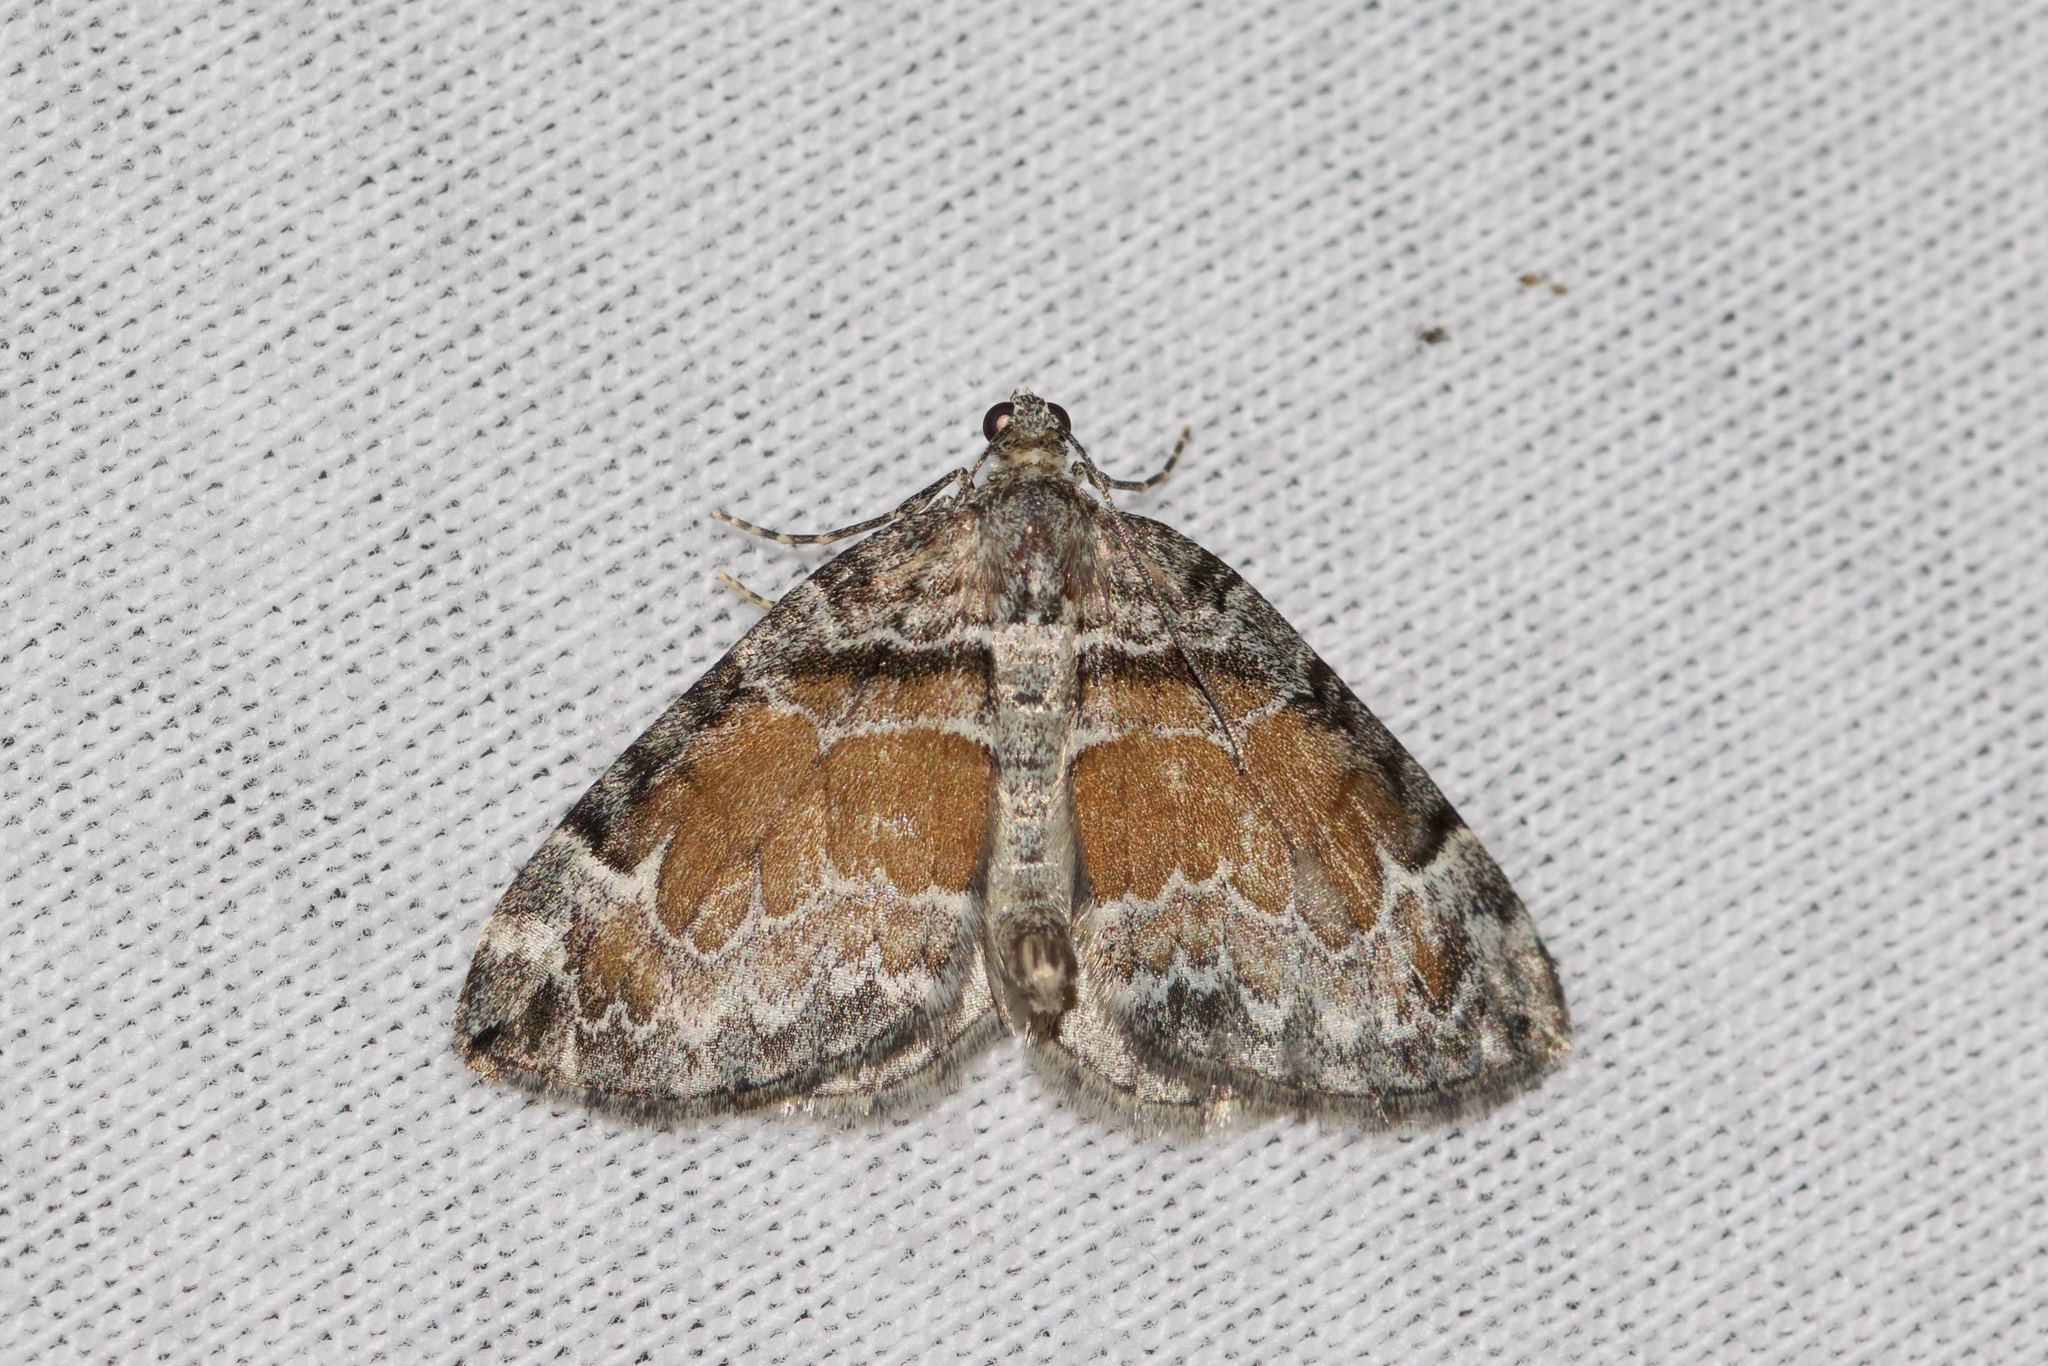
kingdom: Animalia
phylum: Arthropoda
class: Insecta
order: Lepidoptera
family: Geometridae
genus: Dysstroma
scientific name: Dysstroma hersiliata
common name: Orange-barred carpet
